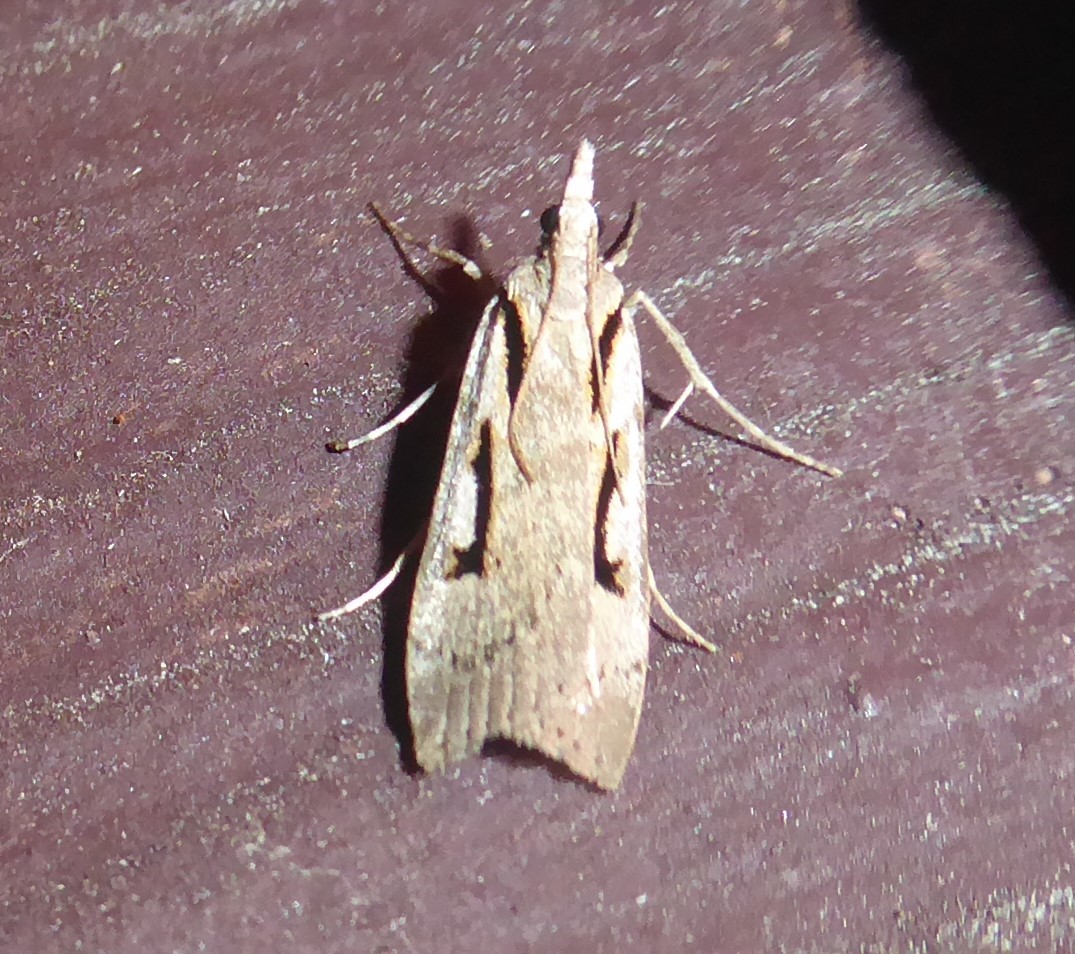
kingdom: Animalia
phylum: Arthropoda
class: Insecta
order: Lepidoptera
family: Crambidae
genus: Scoparia
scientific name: Scoparia rotuellus
